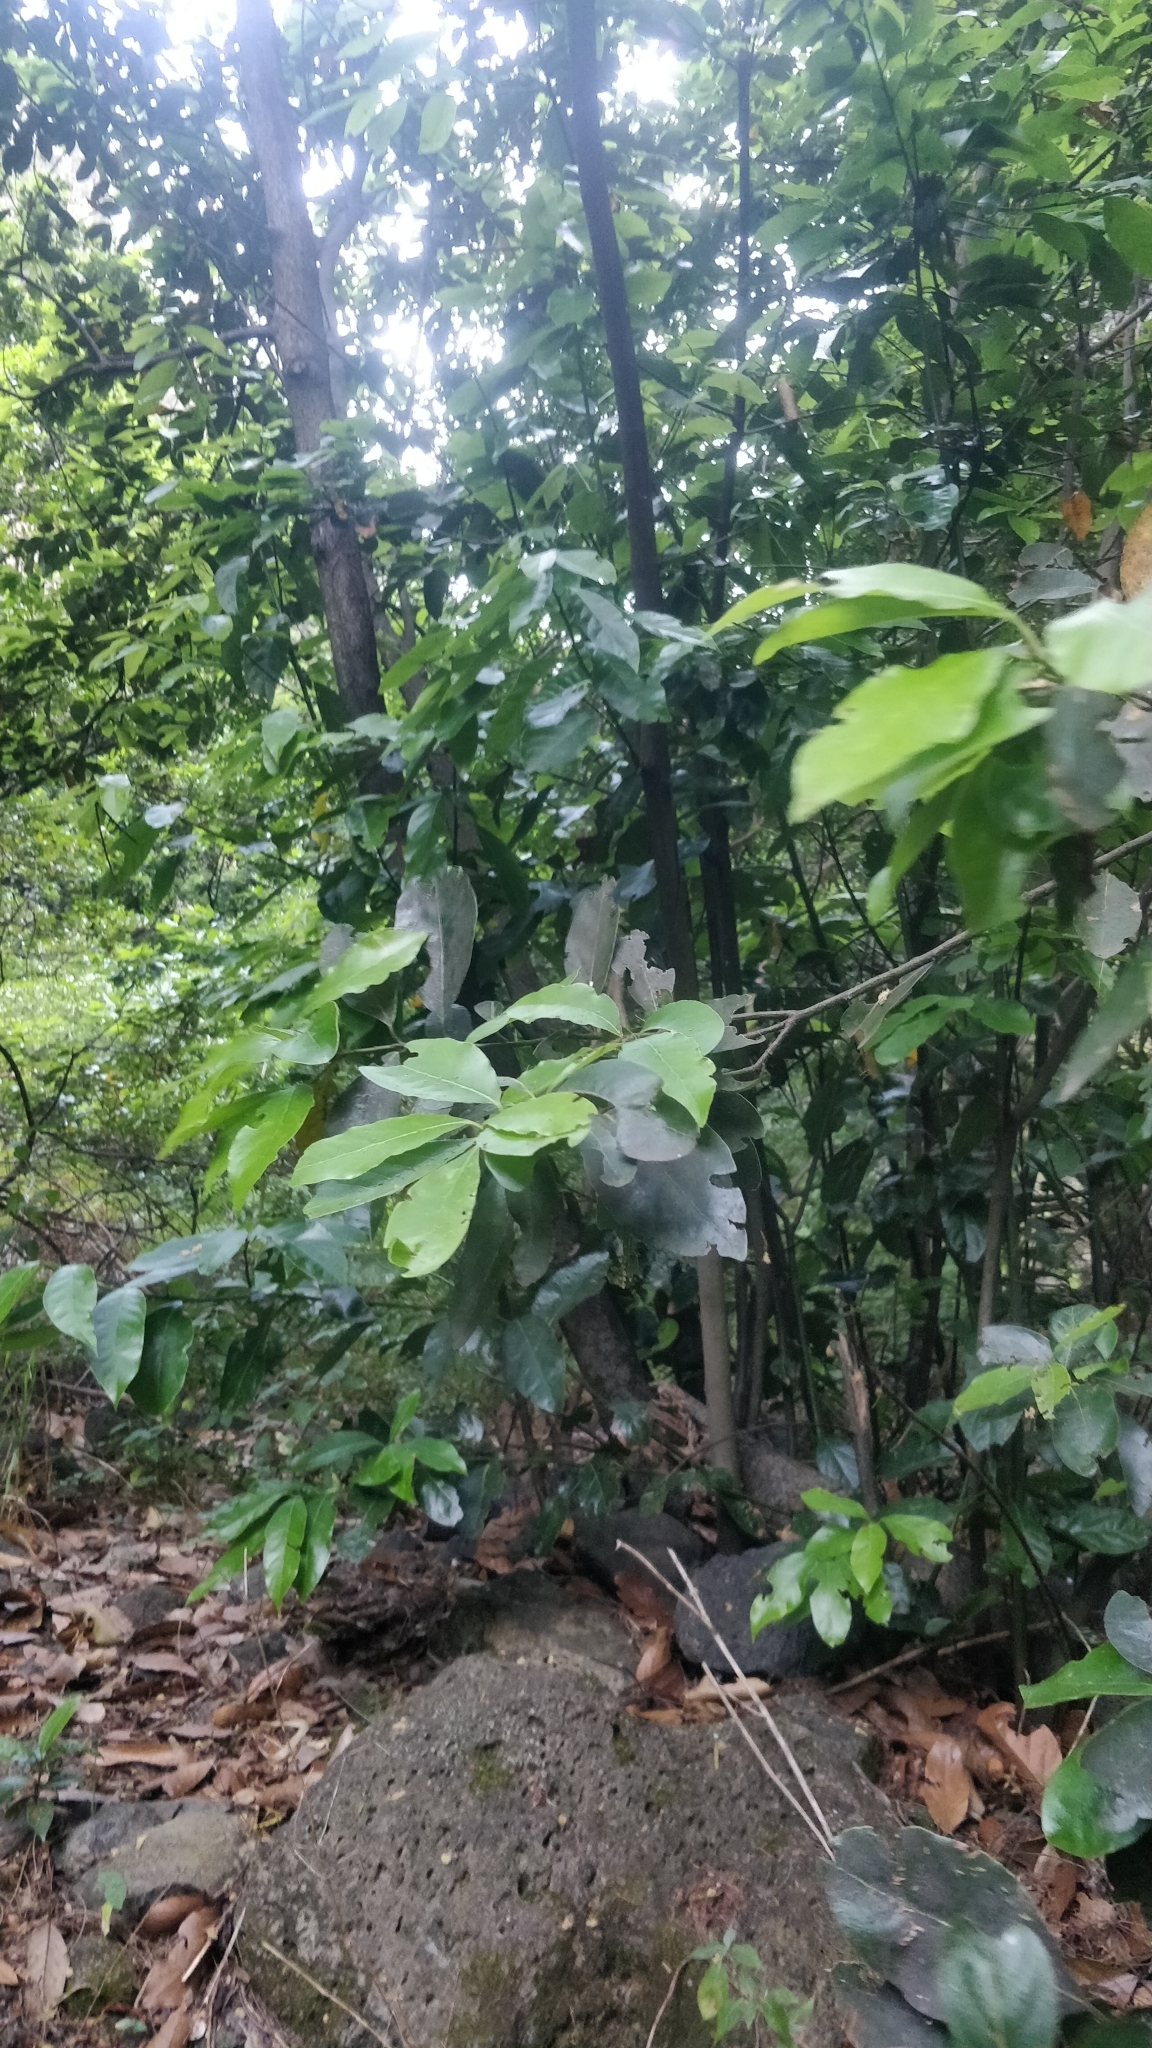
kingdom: Plantae
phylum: Tracheophyta
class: Magnoliopsida
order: Laurales
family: Lauraceae
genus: Laurus
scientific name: Laurus novocanariensis
